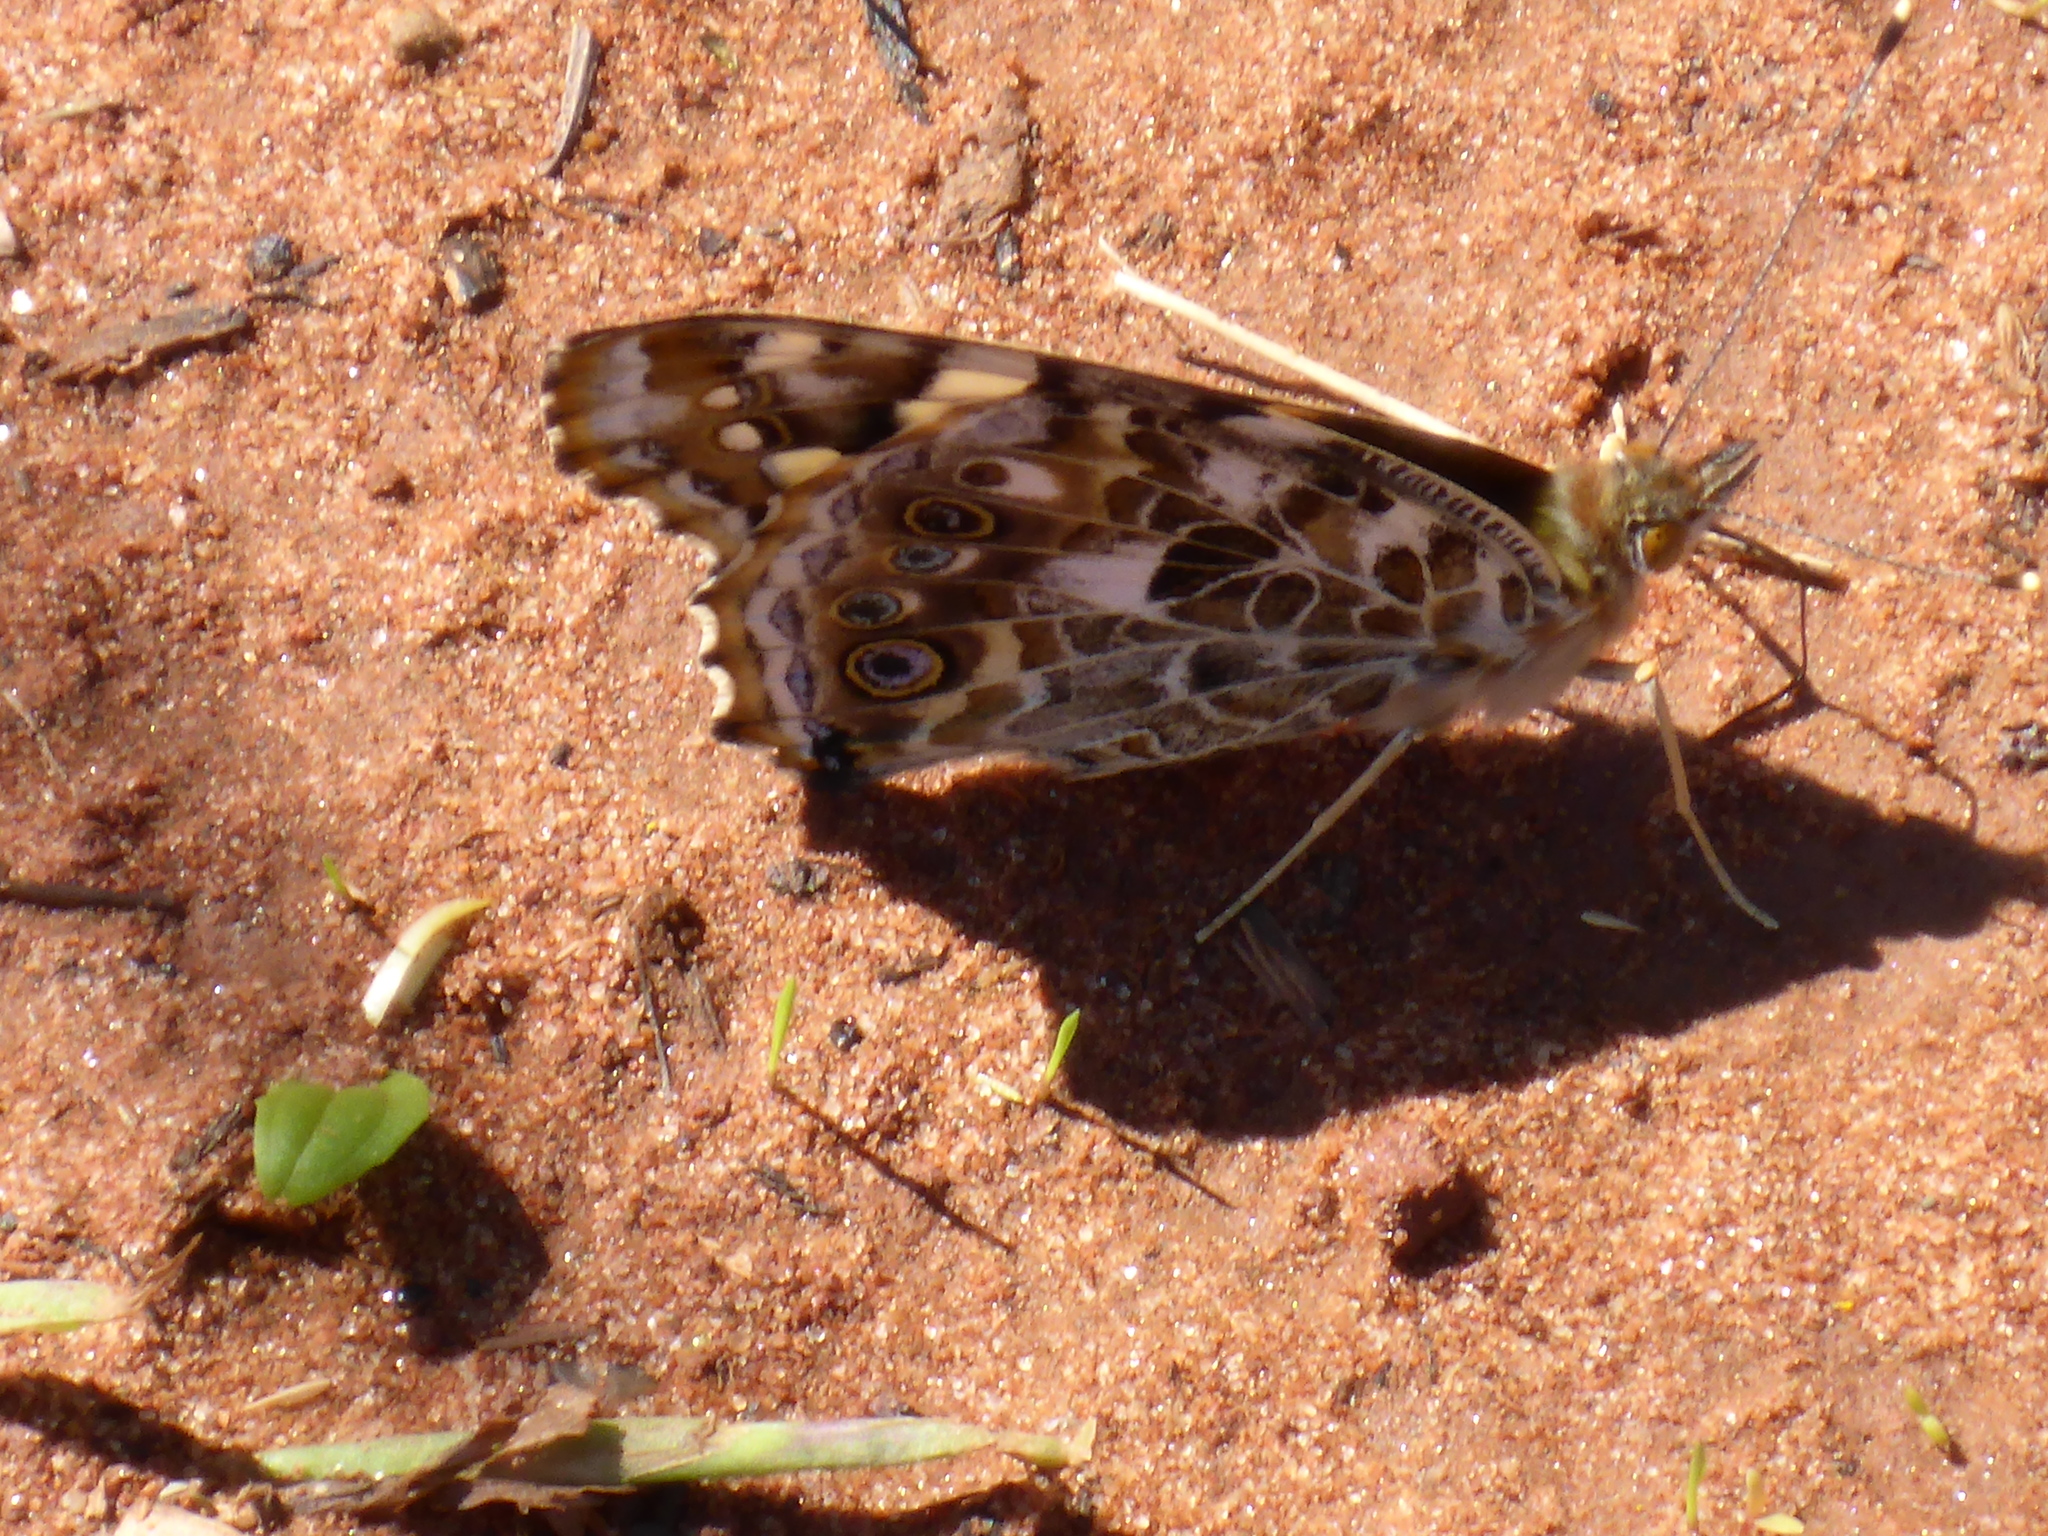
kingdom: Animalia
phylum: Arthropoda
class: Insecta
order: Lepidoptera
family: Nymphalidae
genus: Vanessa
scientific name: Vanessa cardui
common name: Painted lady
